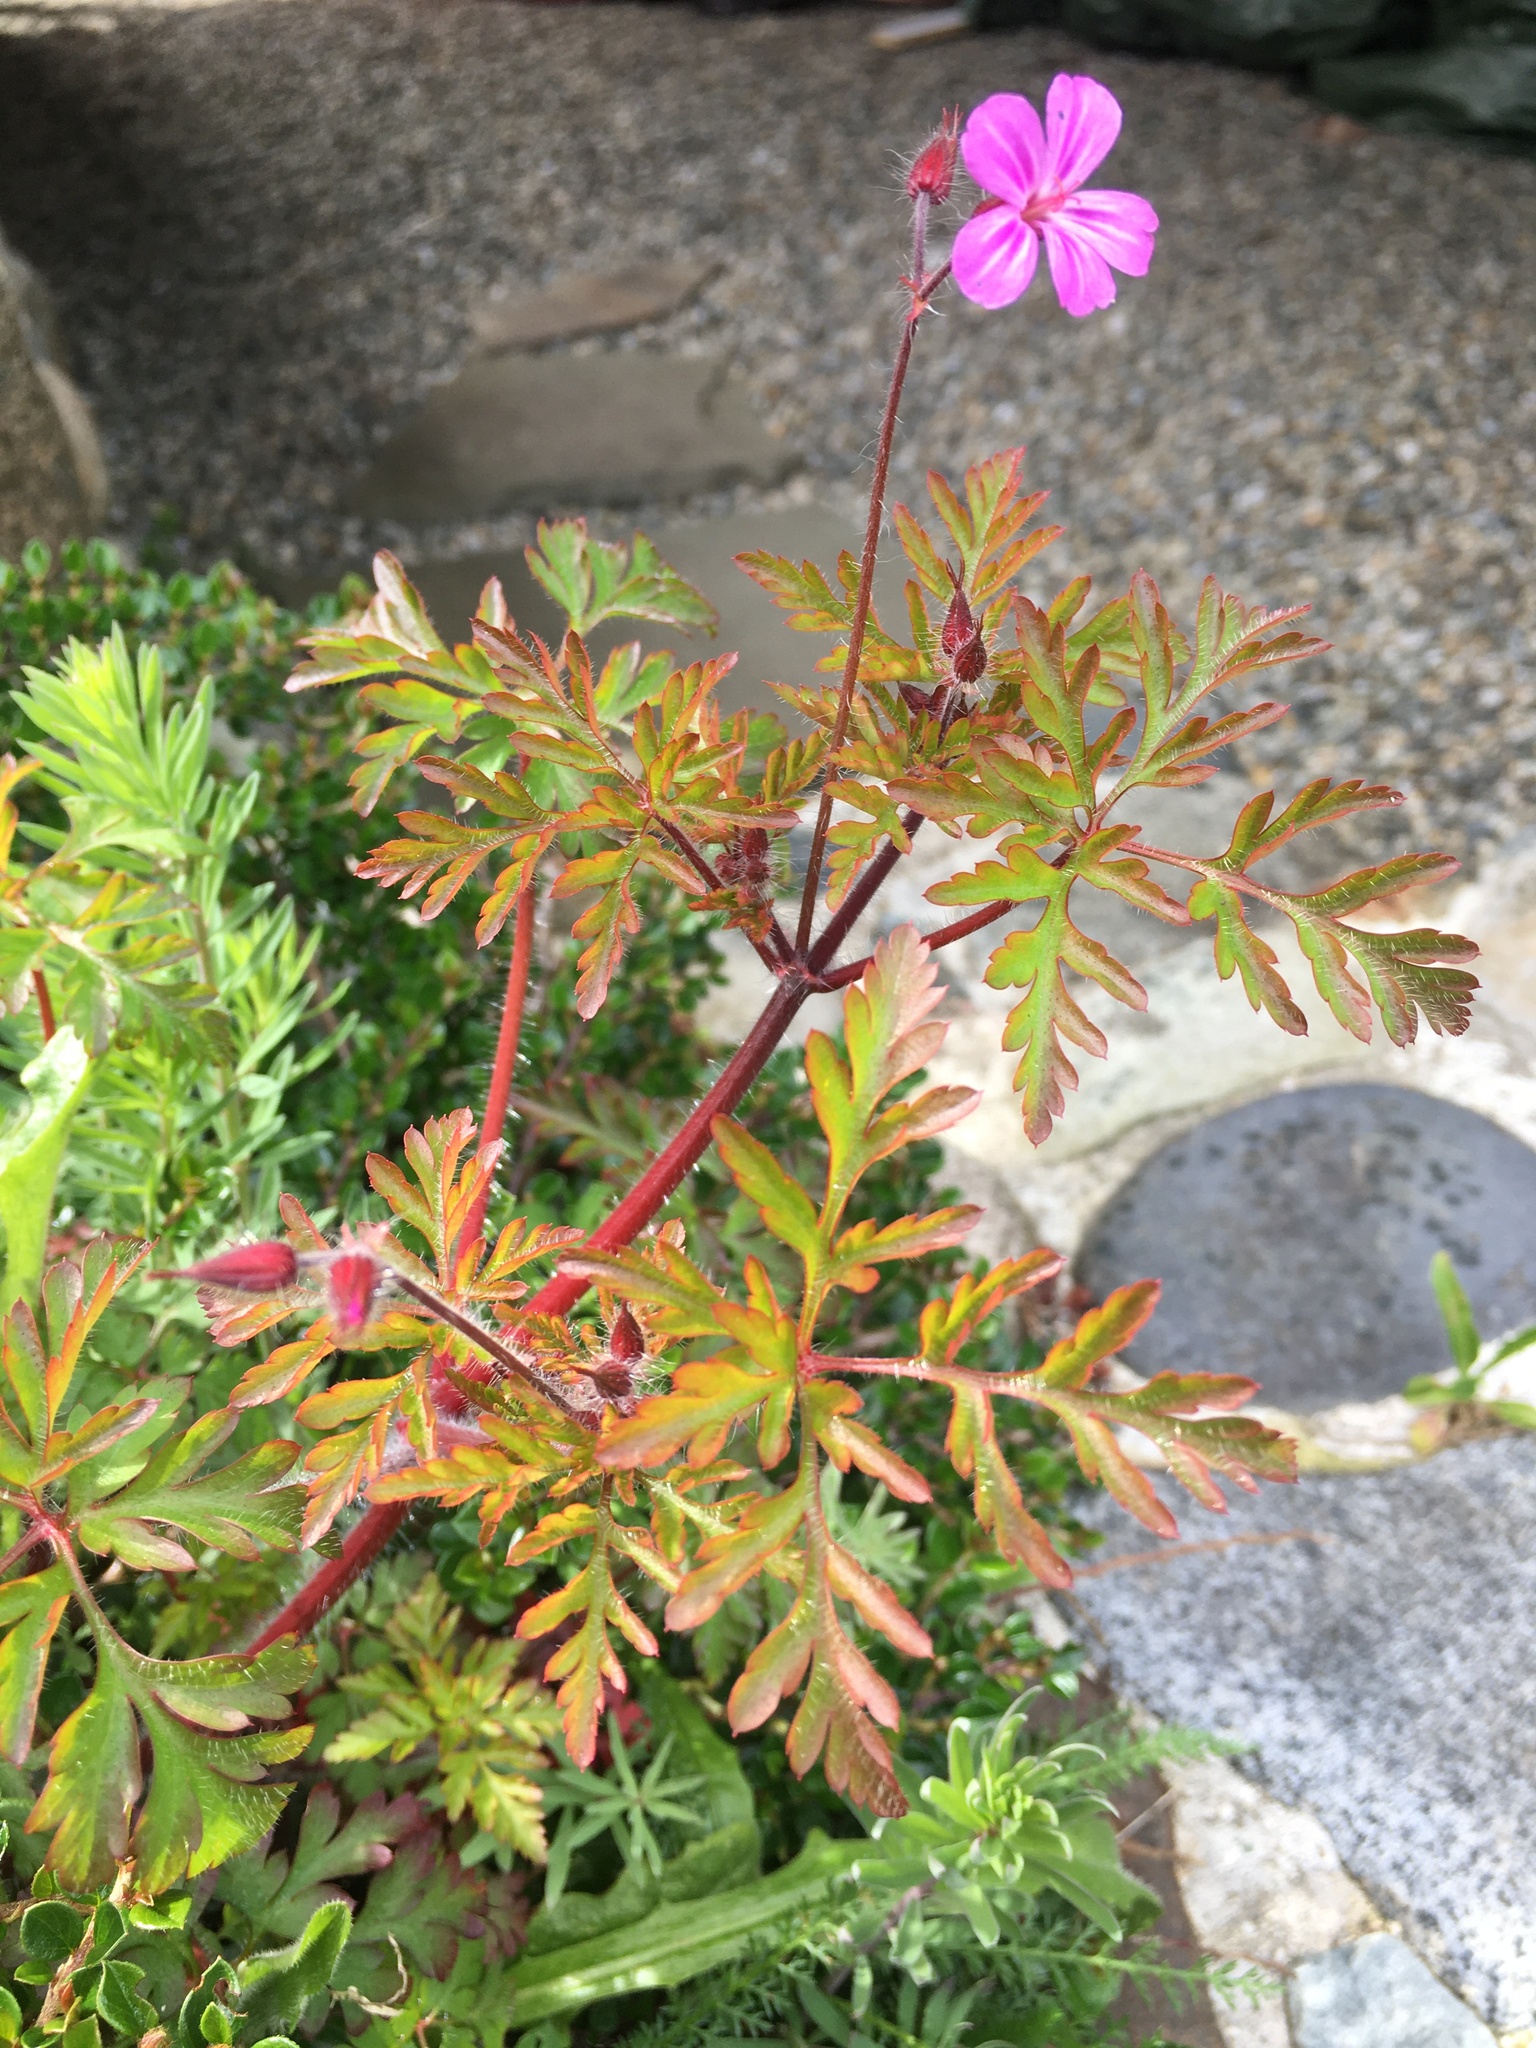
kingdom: Plantae
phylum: Tracheophyta
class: Magnoliopsida
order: Geraniales
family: Geraniaceae
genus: Geranium
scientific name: Geranium robertianum
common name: Herb-robert
